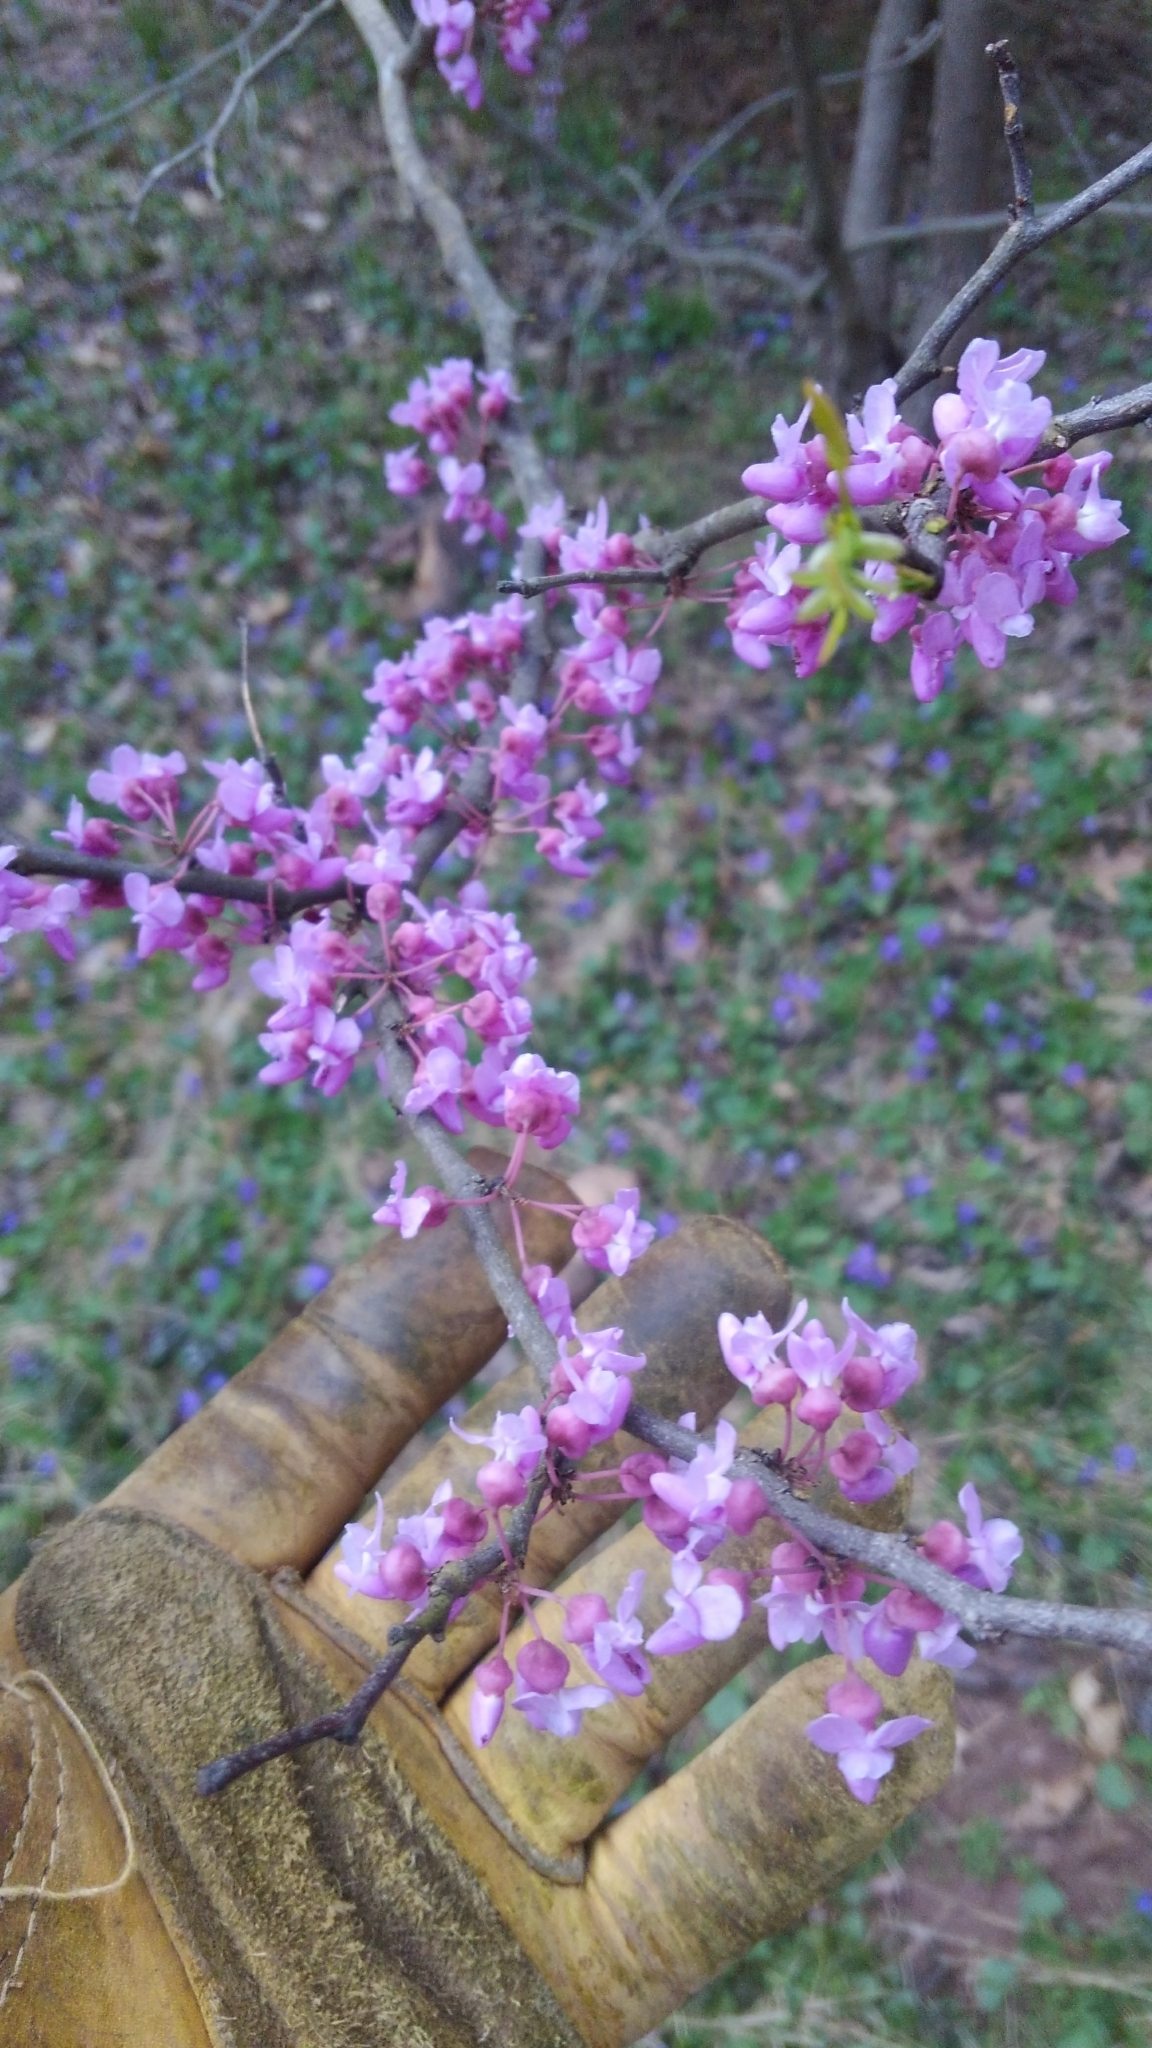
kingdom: Plantae
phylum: Tracheophyta
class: Magnoliopsida
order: Fabales
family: Fabaceae
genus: Cercis
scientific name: Cercis canadensis
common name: Eastern redbud
